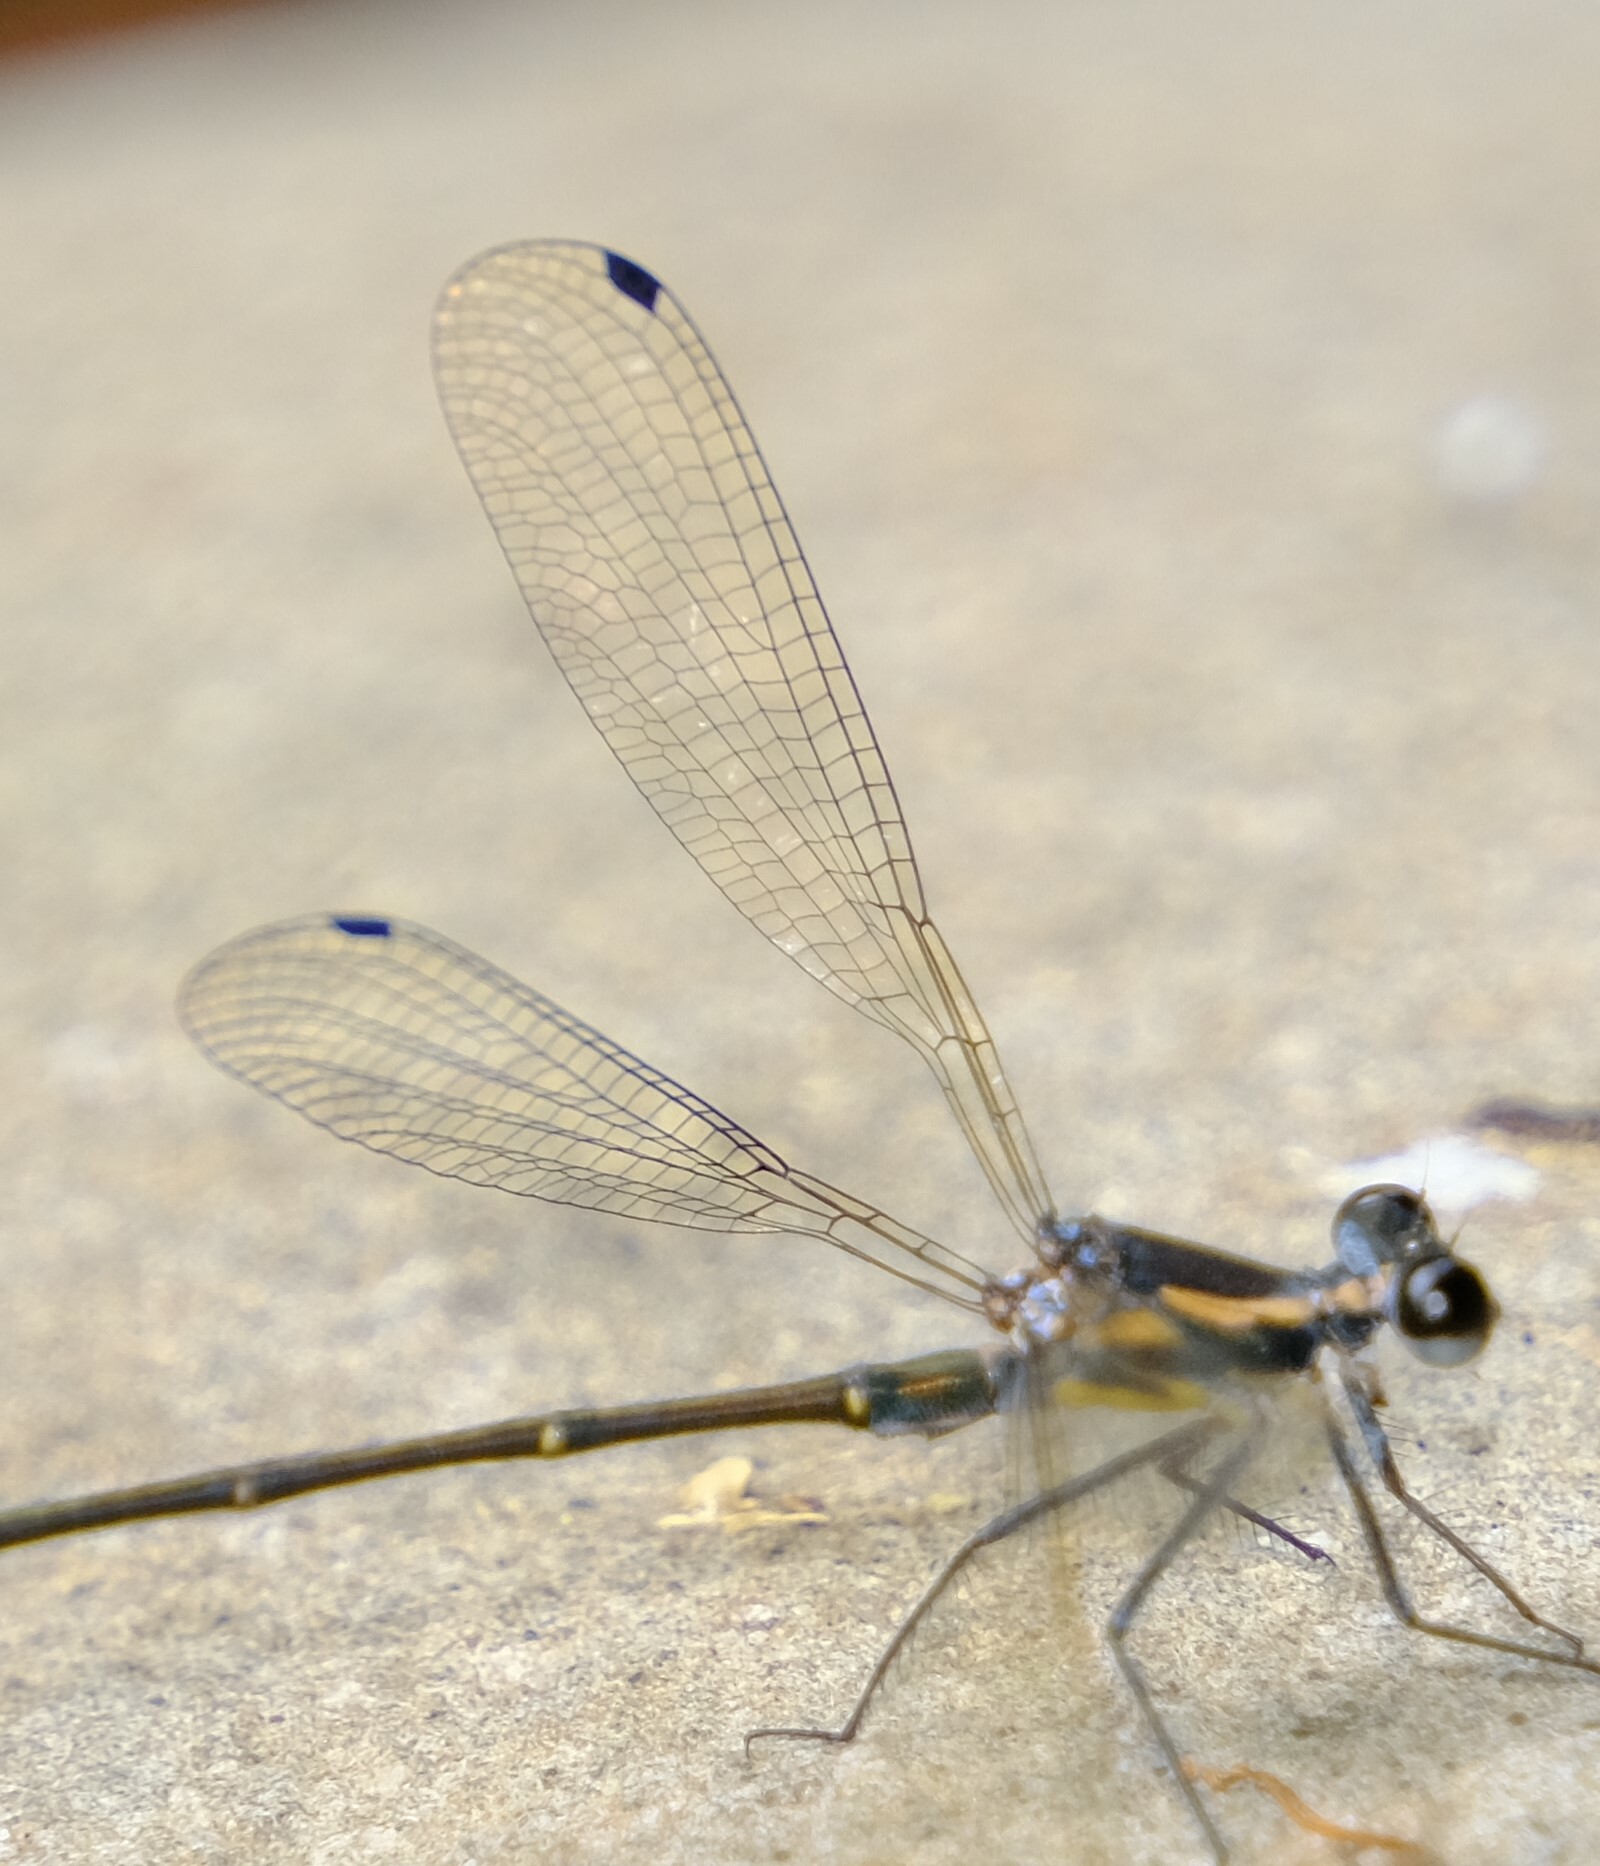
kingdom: Animalia
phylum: Arthropoda
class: Insecta
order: Odonata
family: Argiolestidae
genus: Austroargiolestes
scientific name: Austroargiolestes icteromelas
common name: Common flatwing
